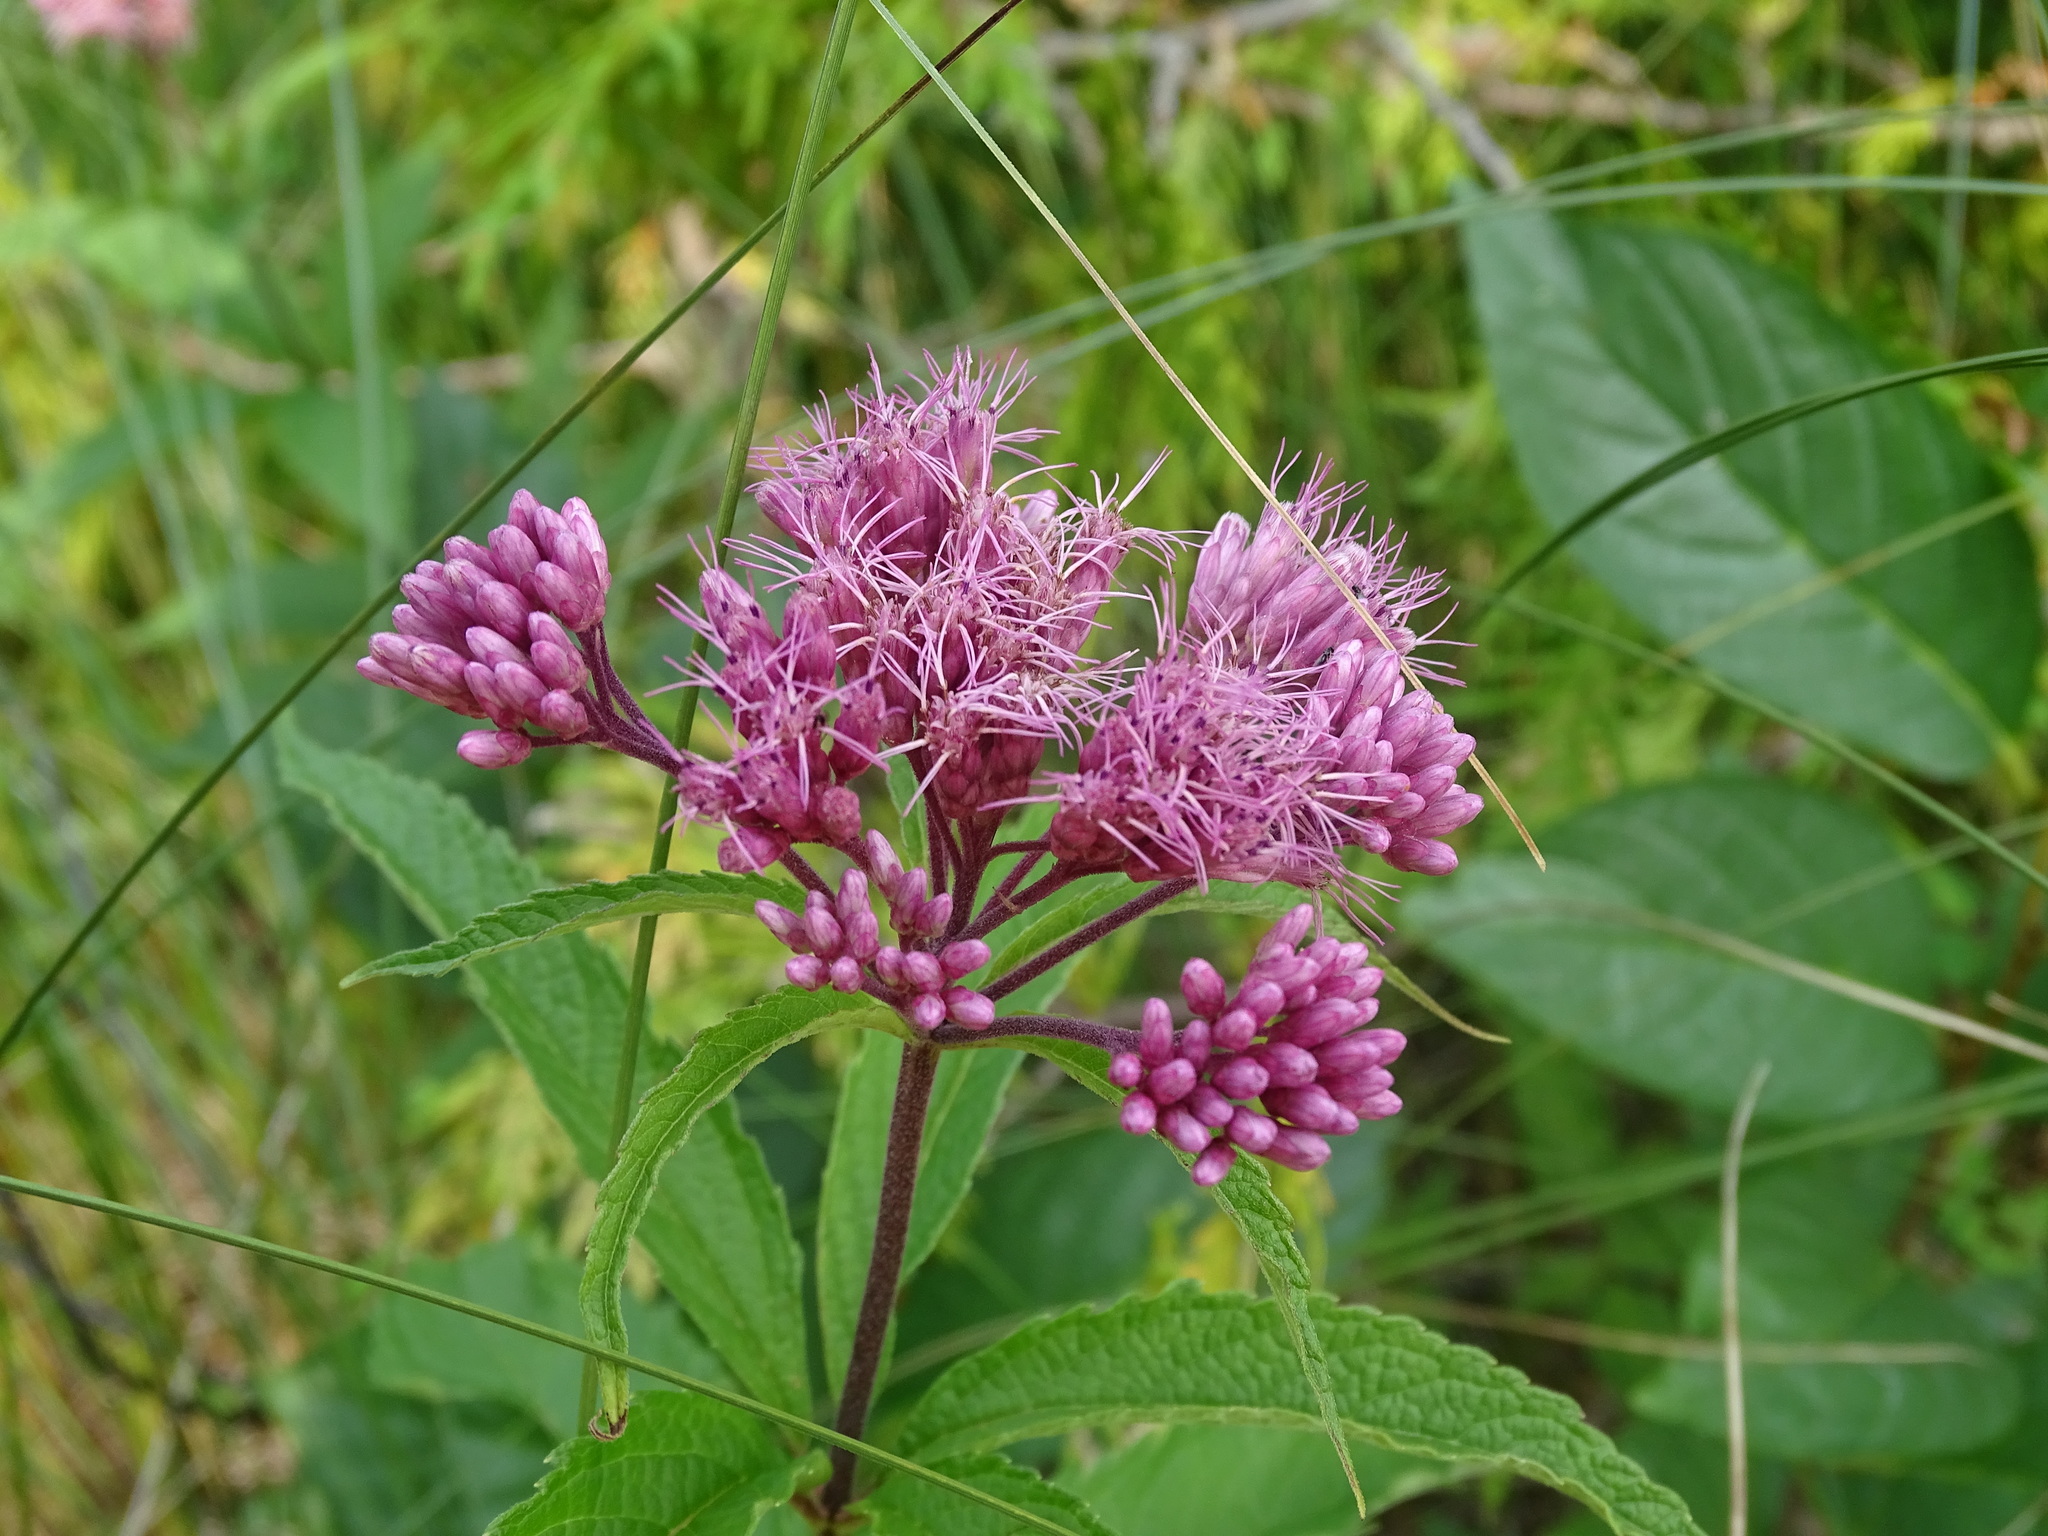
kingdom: Plantae
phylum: Tracheophyta
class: Magnoliopsida
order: Asterales
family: Asteraceae
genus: Eutrochium
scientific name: Eutrochium maculatum
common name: Spotted joe pye weed
